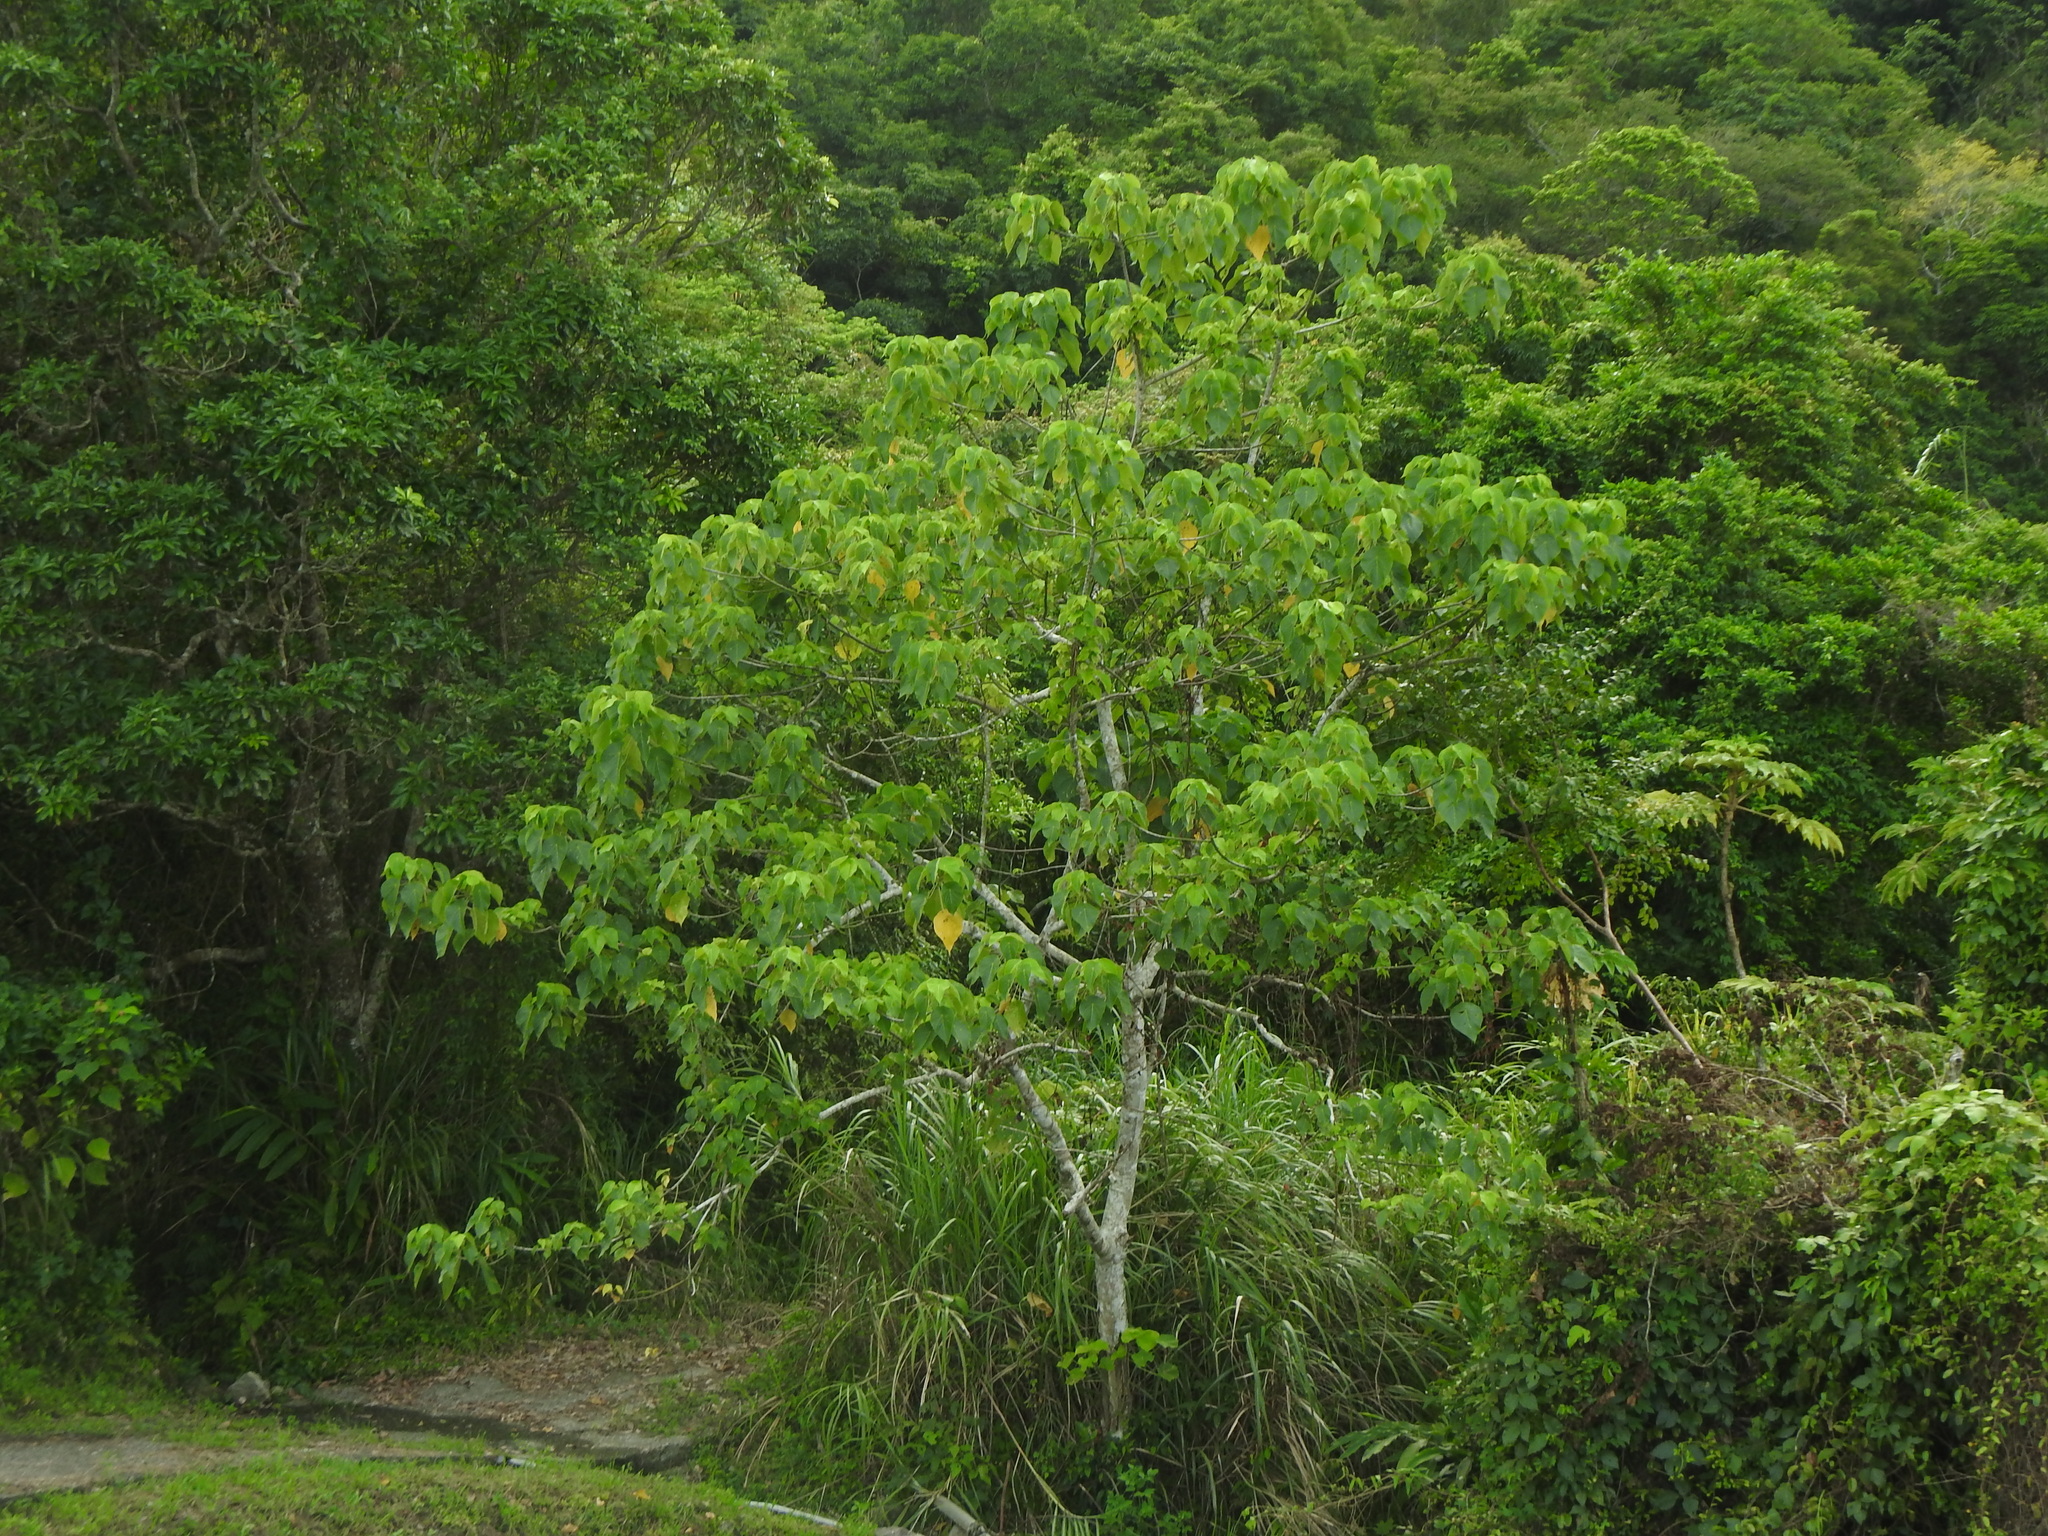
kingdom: Plantae
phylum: Tracheophyta
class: Magnoliopsida
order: Malpighiales
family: Euphorbiaceae
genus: Macaranga
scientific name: Macaranga tanarius
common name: Parasol leaf tree
